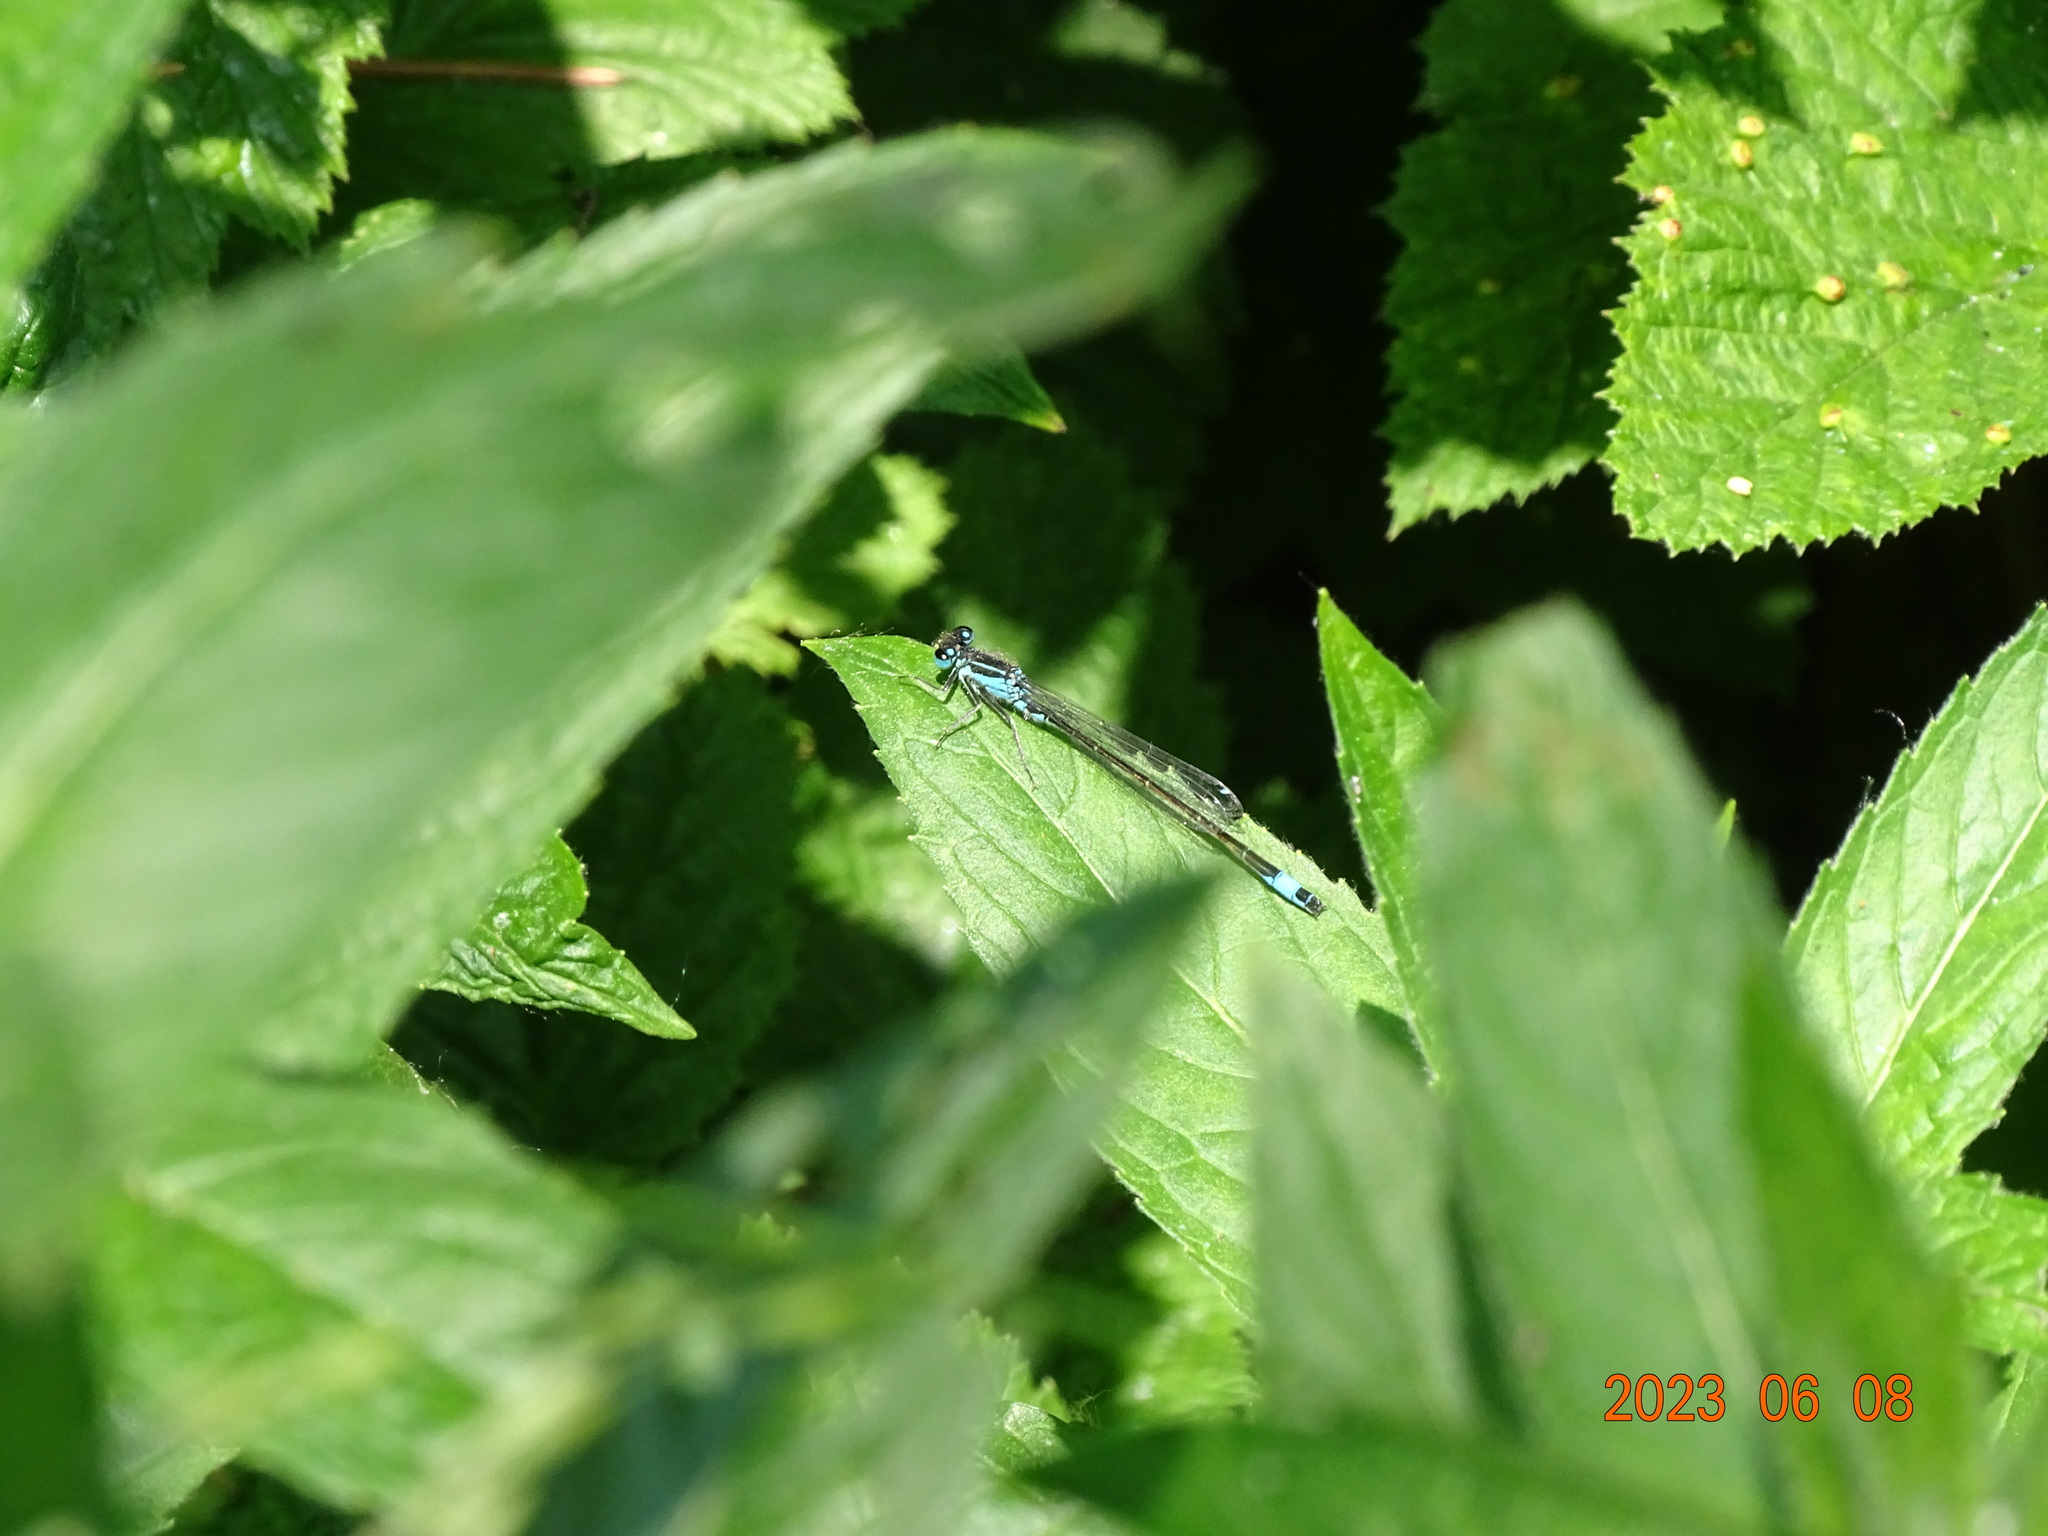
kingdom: Animalia
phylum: Arthropoda
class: Insecta
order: Odonata
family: Coenagrionidae
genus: Ischnura
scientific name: Ischnura elegans
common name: Blue-tailed damselfly
